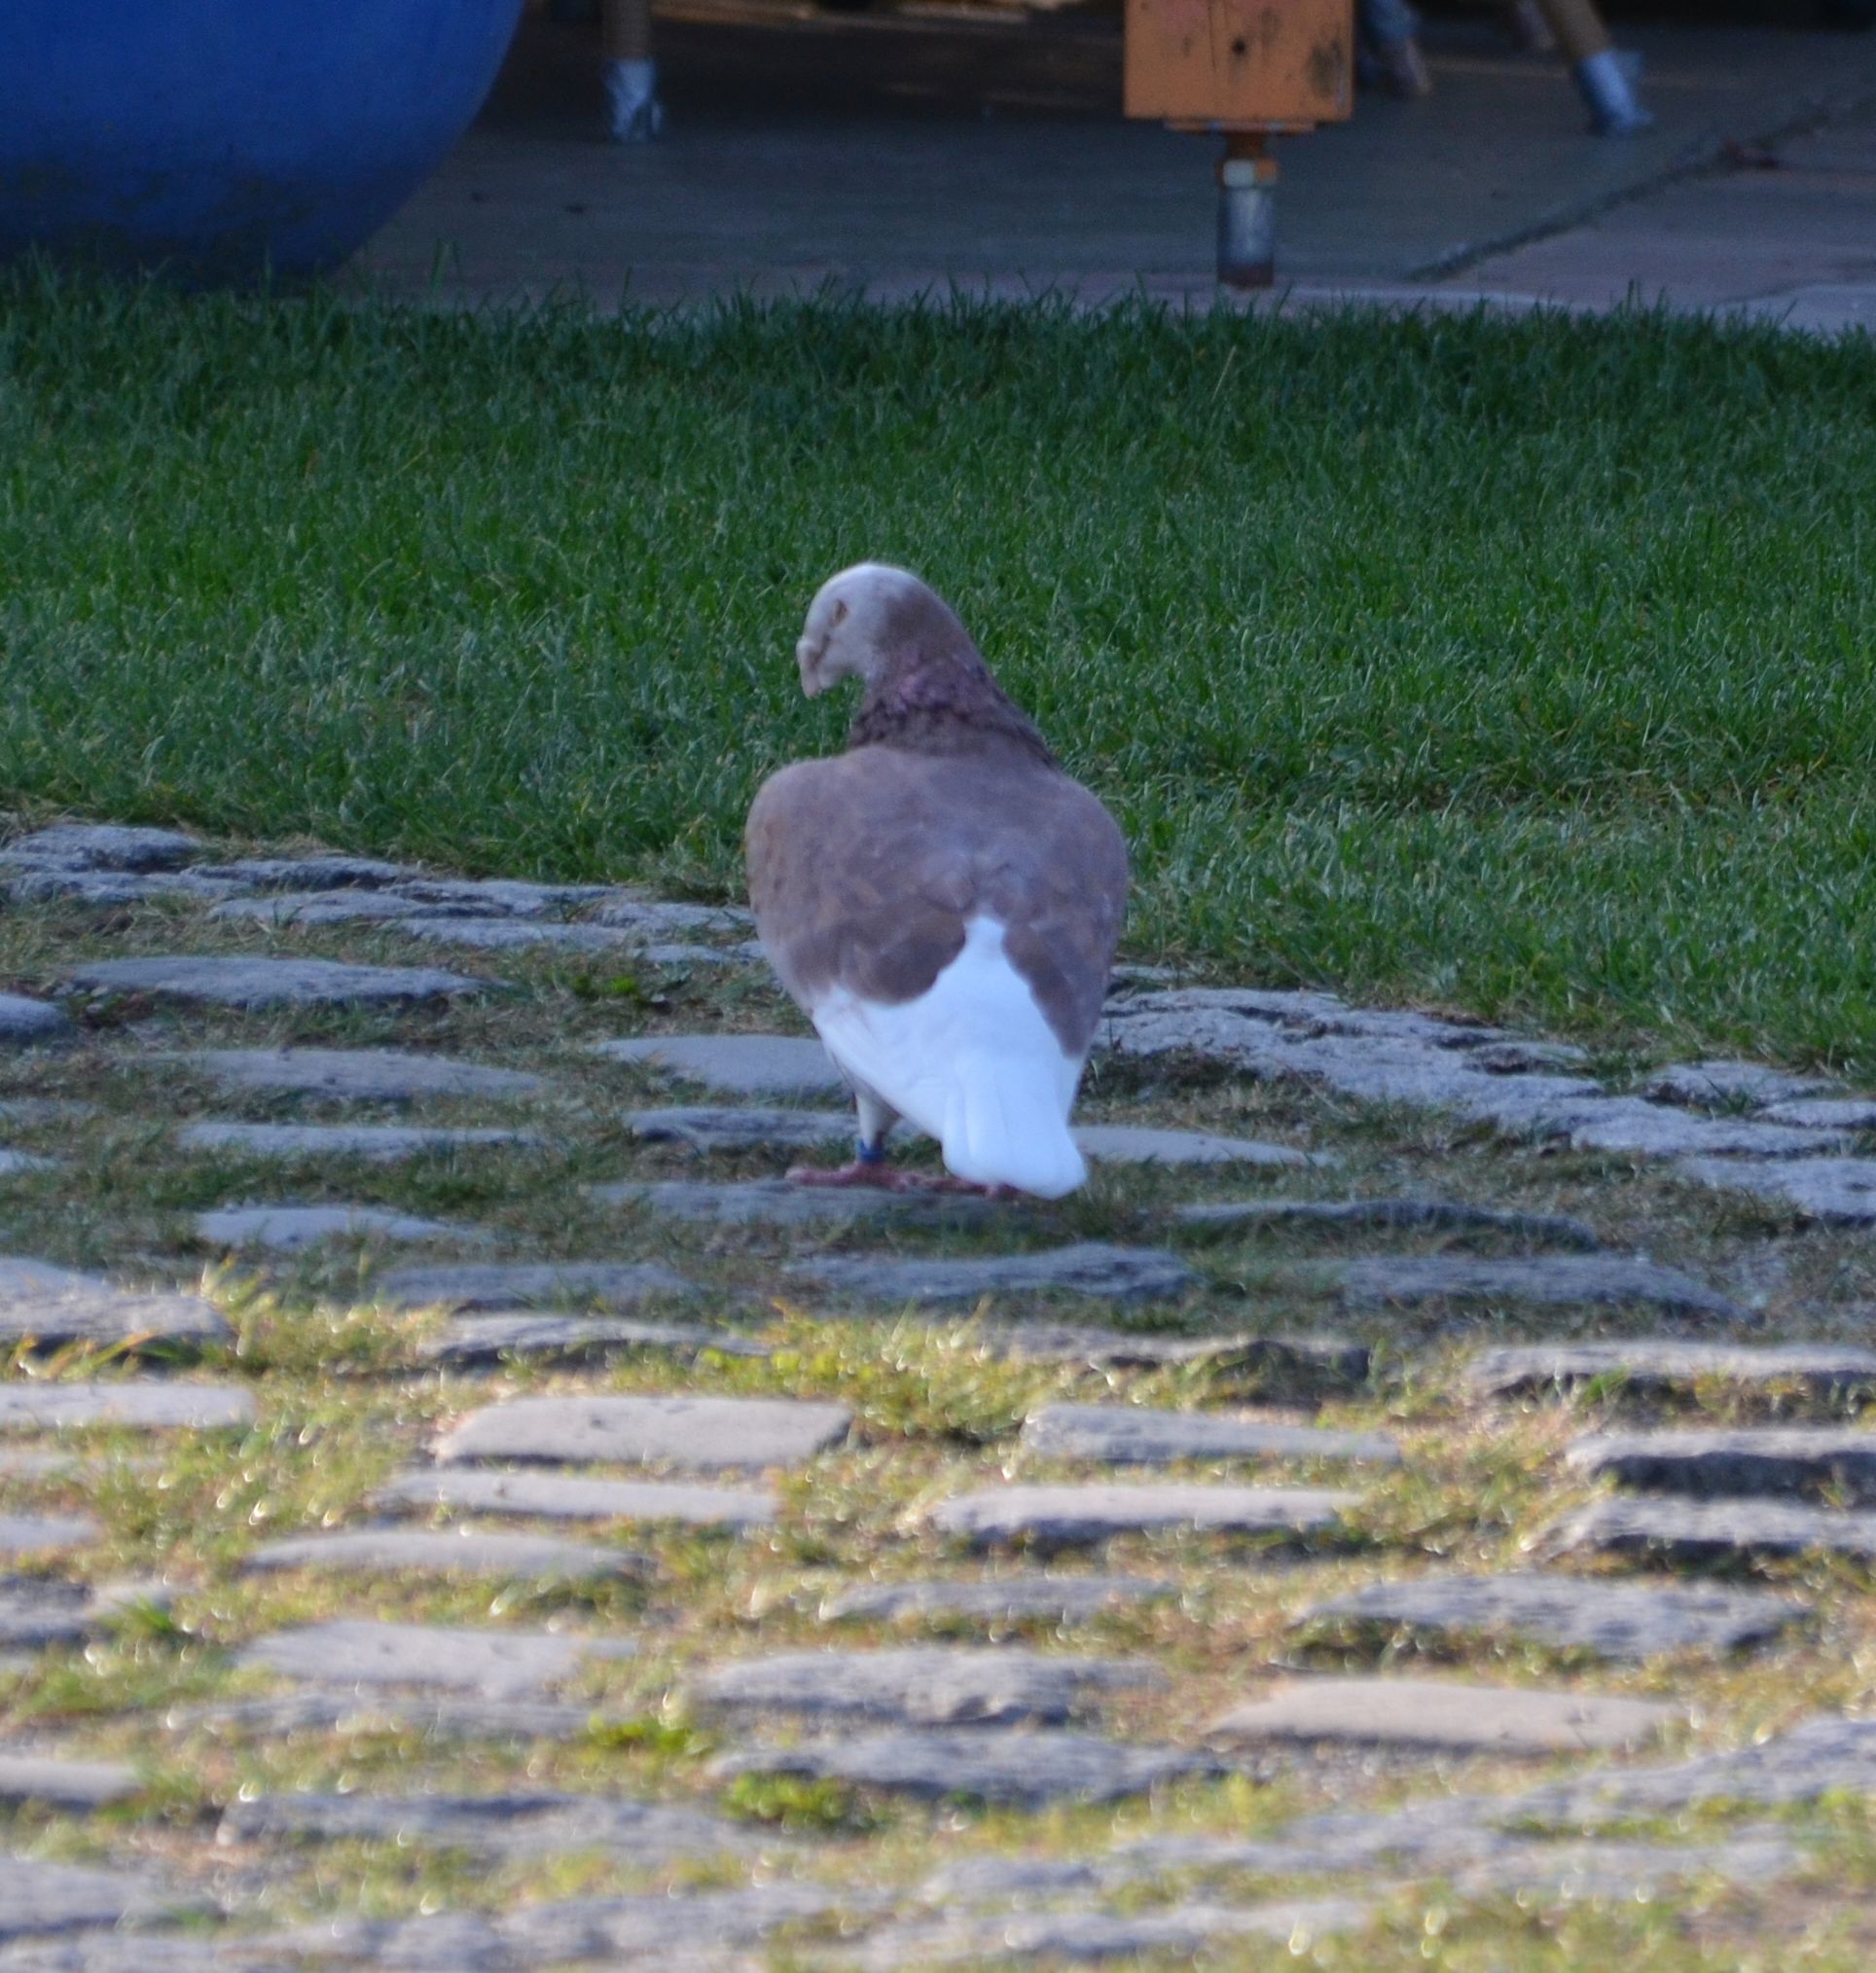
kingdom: Animalia
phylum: Chordata
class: Aves
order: Columbiformes
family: Columbidae
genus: Columba
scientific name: Columba livia
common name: Rock pigeon
